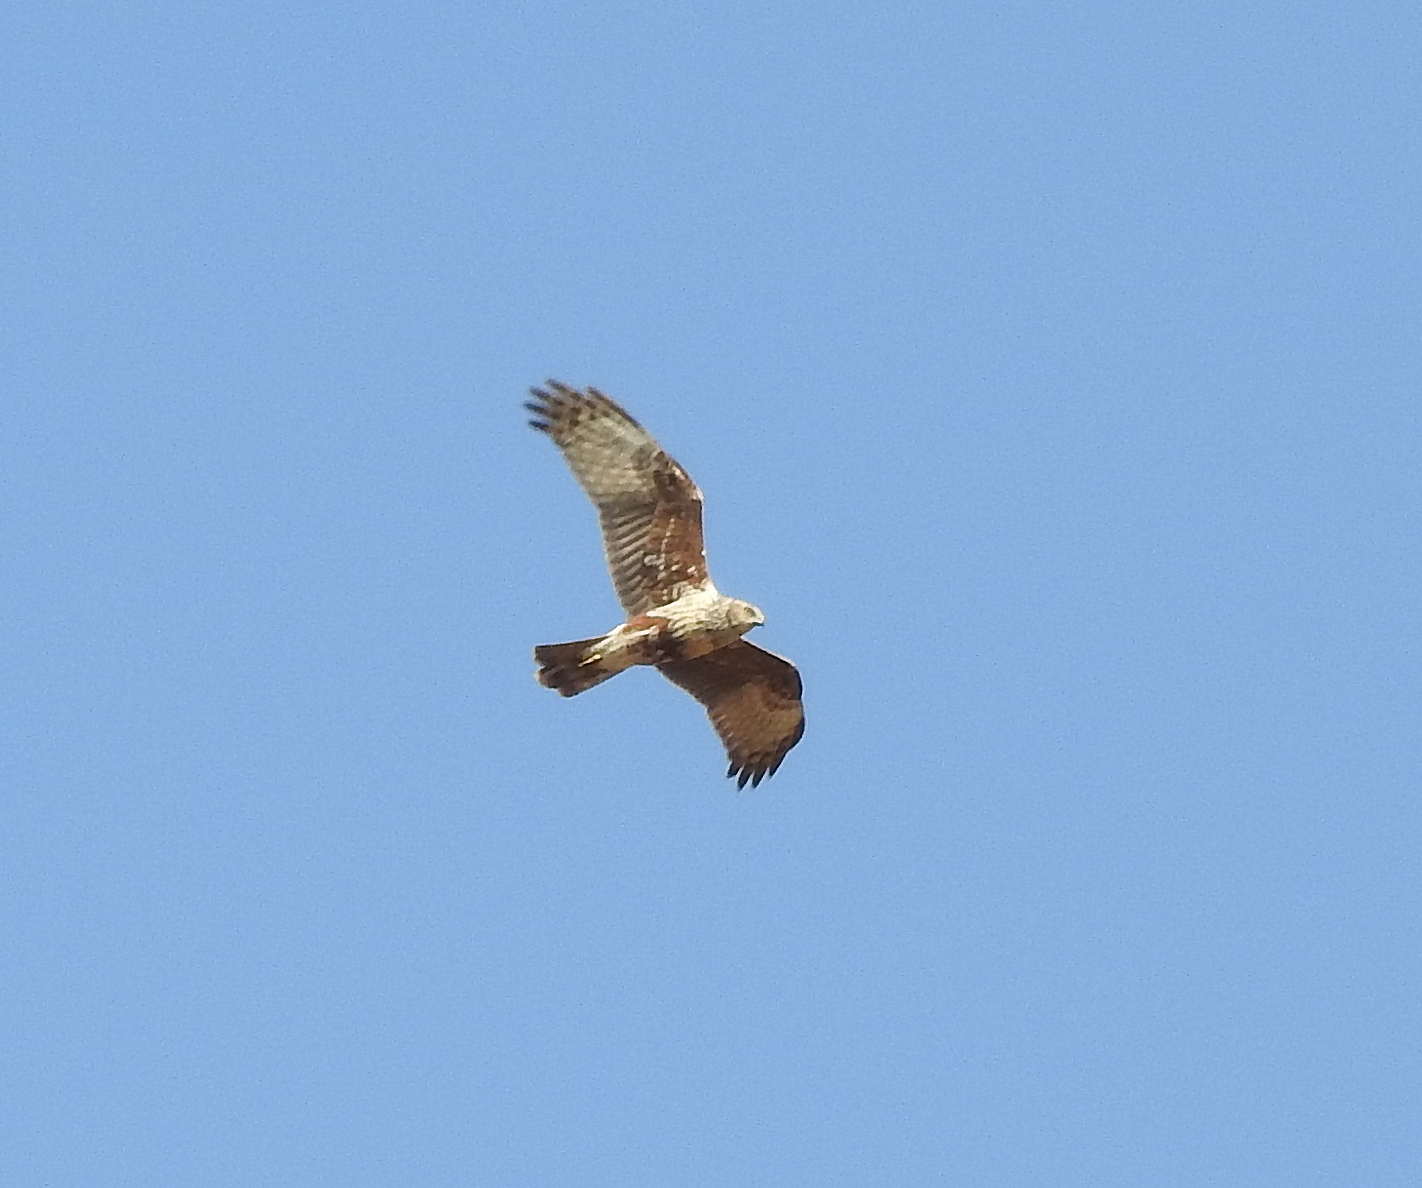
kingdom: Animalia
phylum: Chordata
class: Aves
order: Accipitriformes
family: Accipitridae
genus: Circus
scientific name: Circus spilonotus
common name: Eastern marsh-harrier
